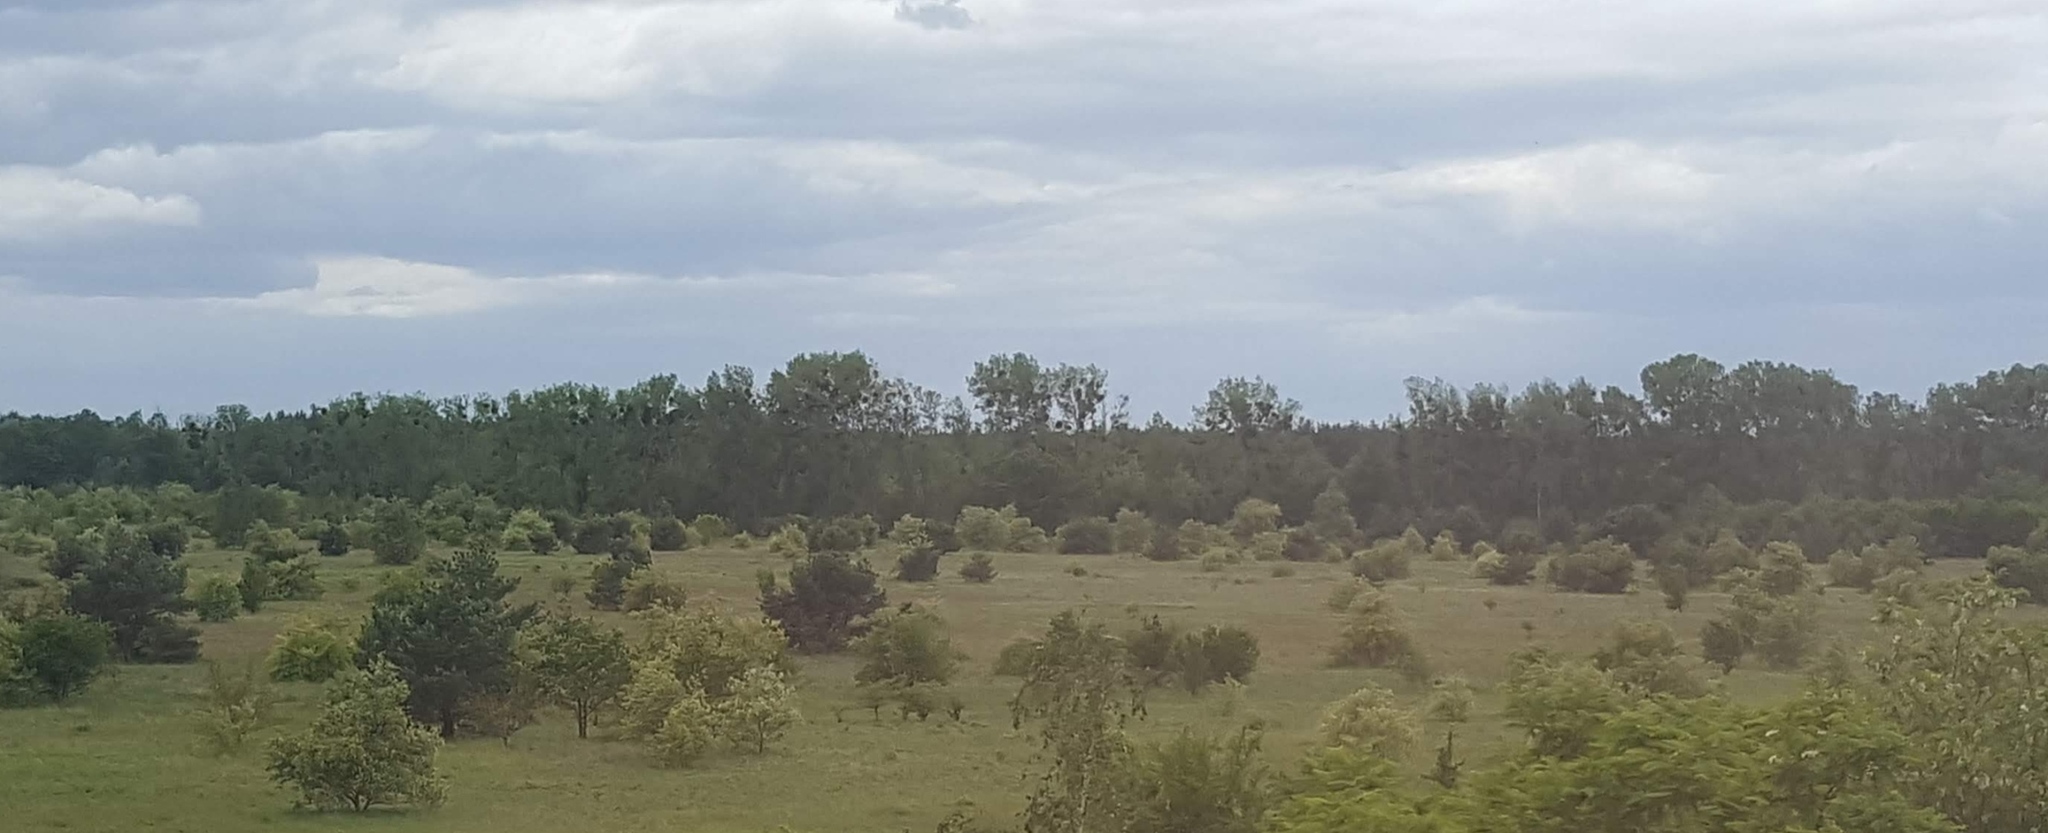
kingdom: Plantae
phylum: Tracheophyta
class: Magnoliopsida
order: Santalales
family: Viscaceae
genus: Viscum
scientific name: Viscum album
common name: Mistletoe
